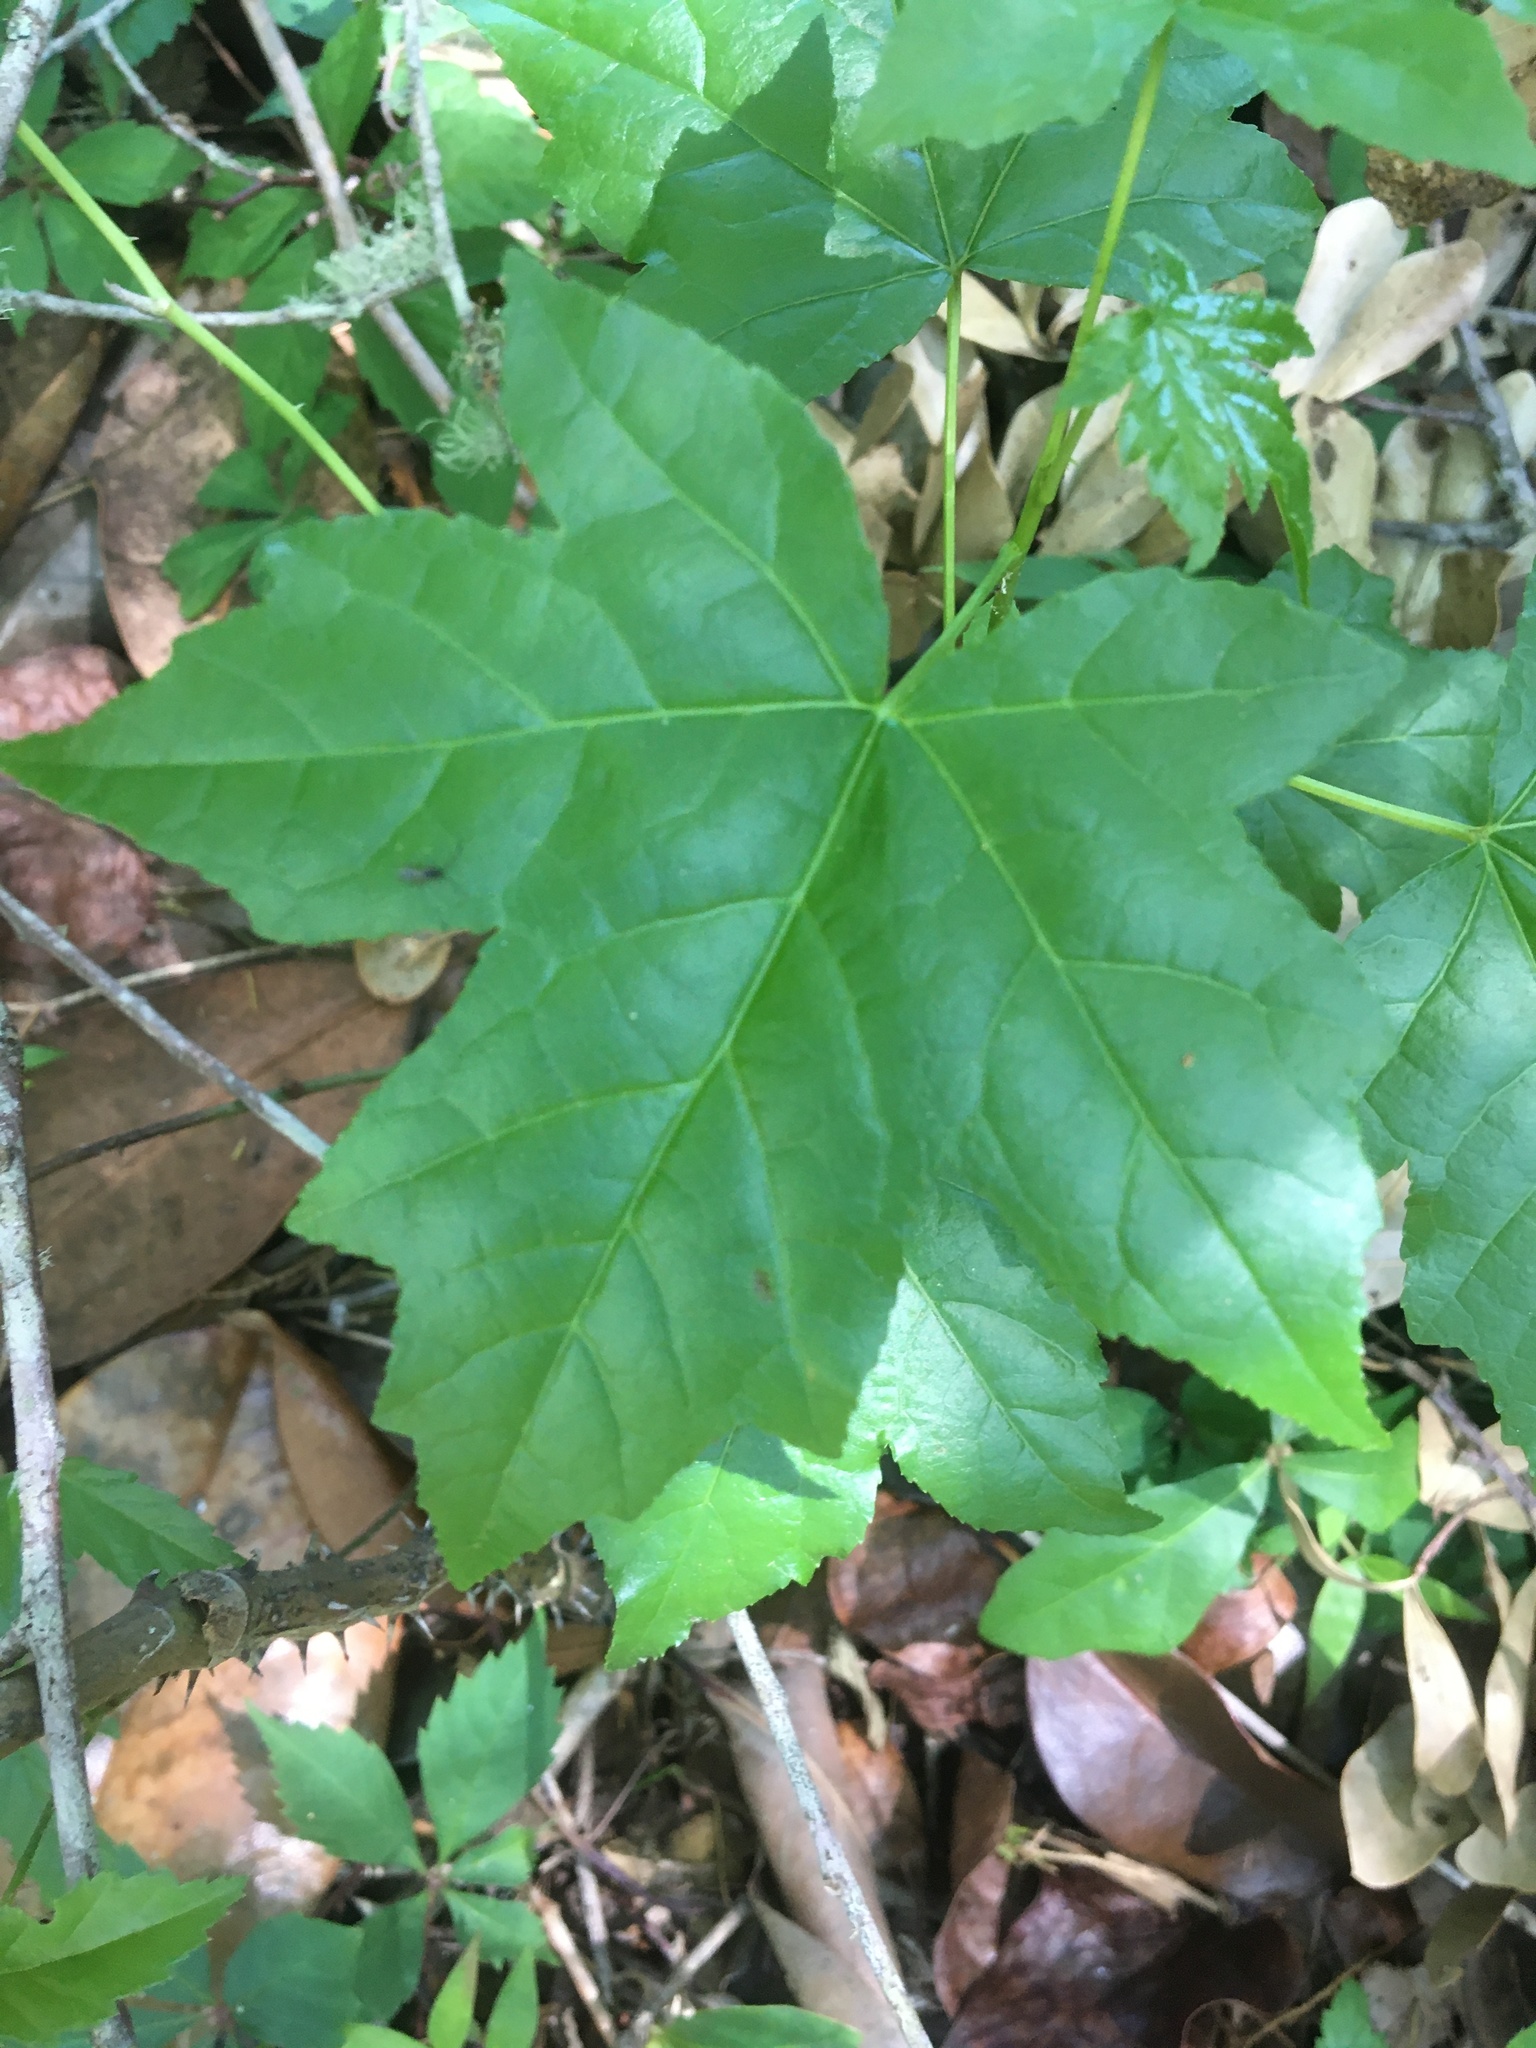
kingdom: Plantae
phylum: Tracheophyta
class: Magnoliopsida
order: Saxifragales
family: Altingiaceae
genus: Liquidambar
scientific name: Liquidambar styraciflua
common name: Sweet gum
